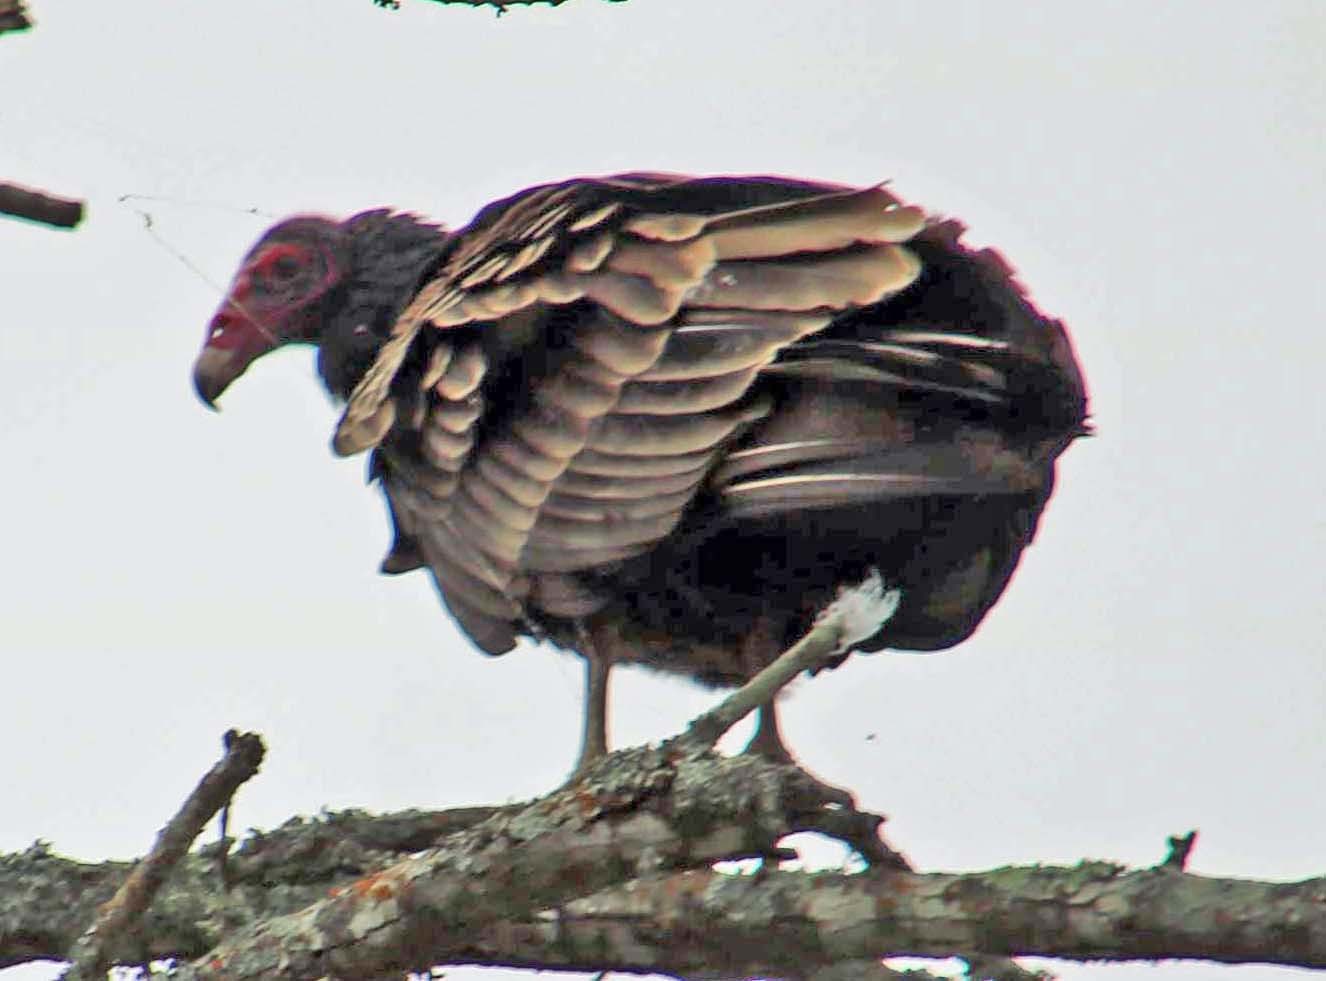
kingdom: Animalia
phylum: Chordata
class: Aves
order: Accipitriformes
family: Cathartidae
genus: Cathartes
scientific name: Cathartes aura
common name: Turkey vulture
